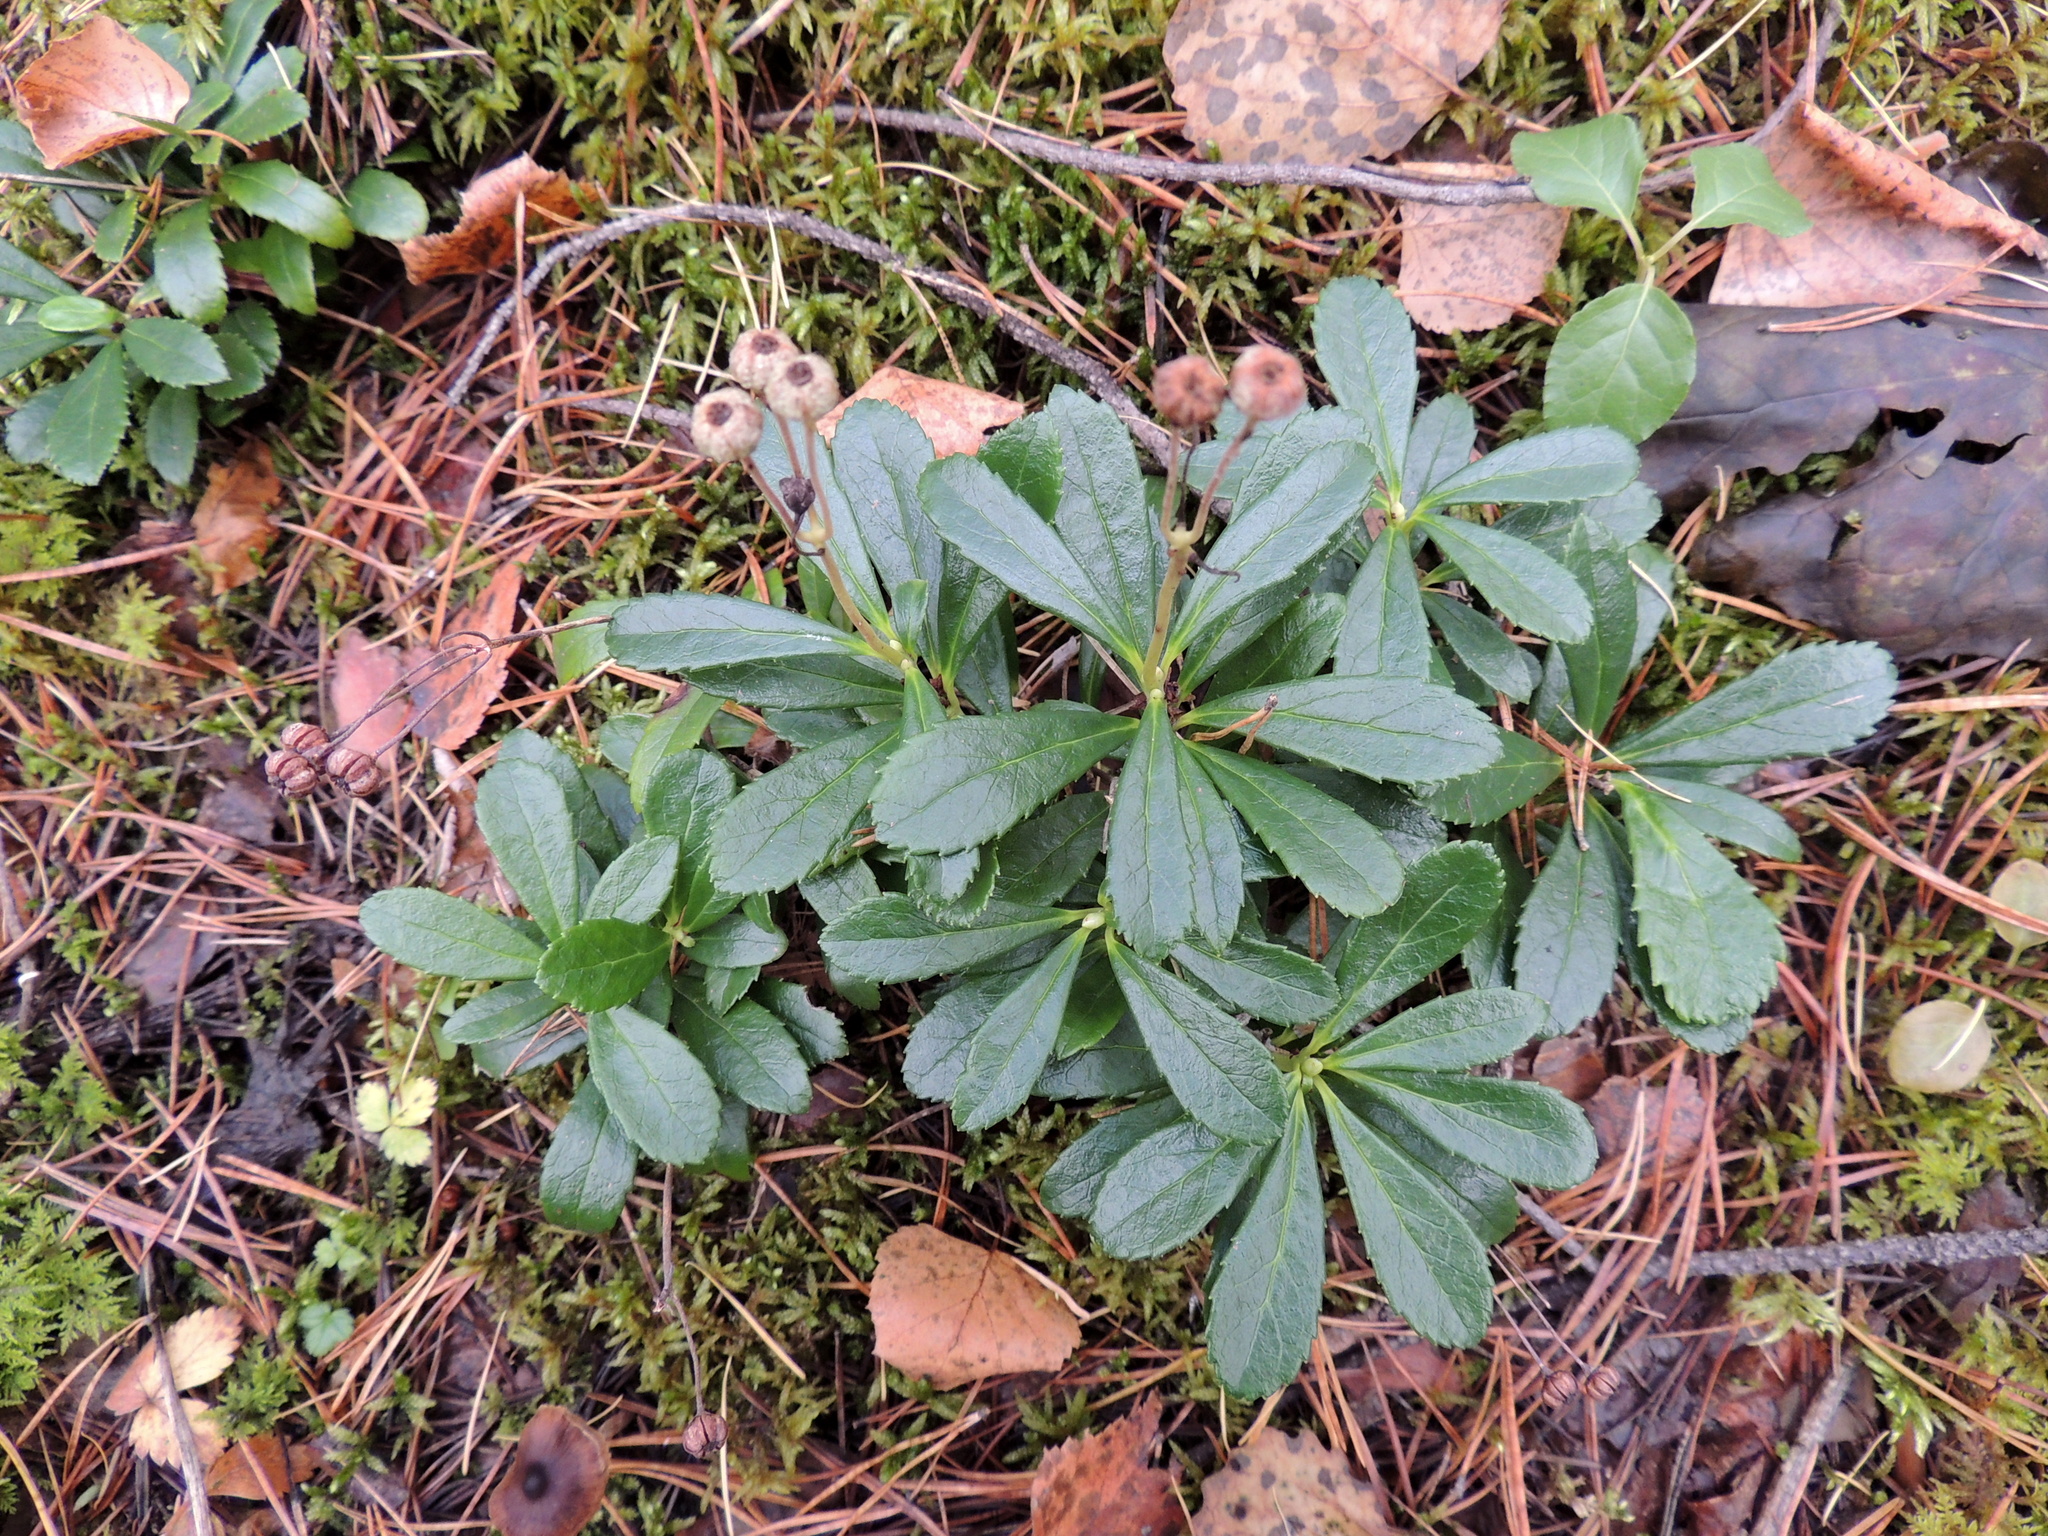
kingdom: Plantae
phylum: Tracheophyta
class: Magnoliopsida
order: Ericales
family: Ericaceae
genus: Chimaphila
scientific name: Chimaphila umbellata
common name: Pipsissewa
